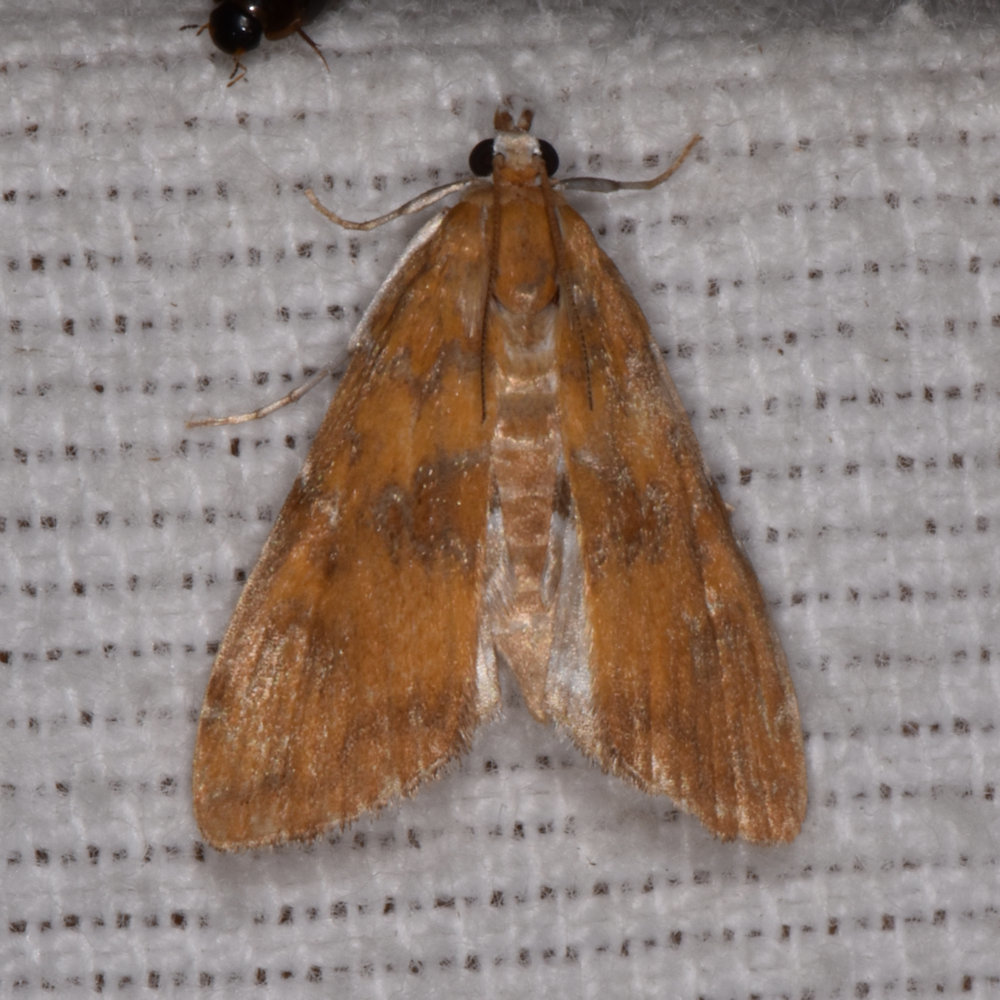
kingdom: Animalia
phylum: Arthropoda
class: Insecta
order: Lepidoptera
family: Crambidae
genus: Elophila
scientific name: Elophila gyralis
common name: Waterlily borer moth
